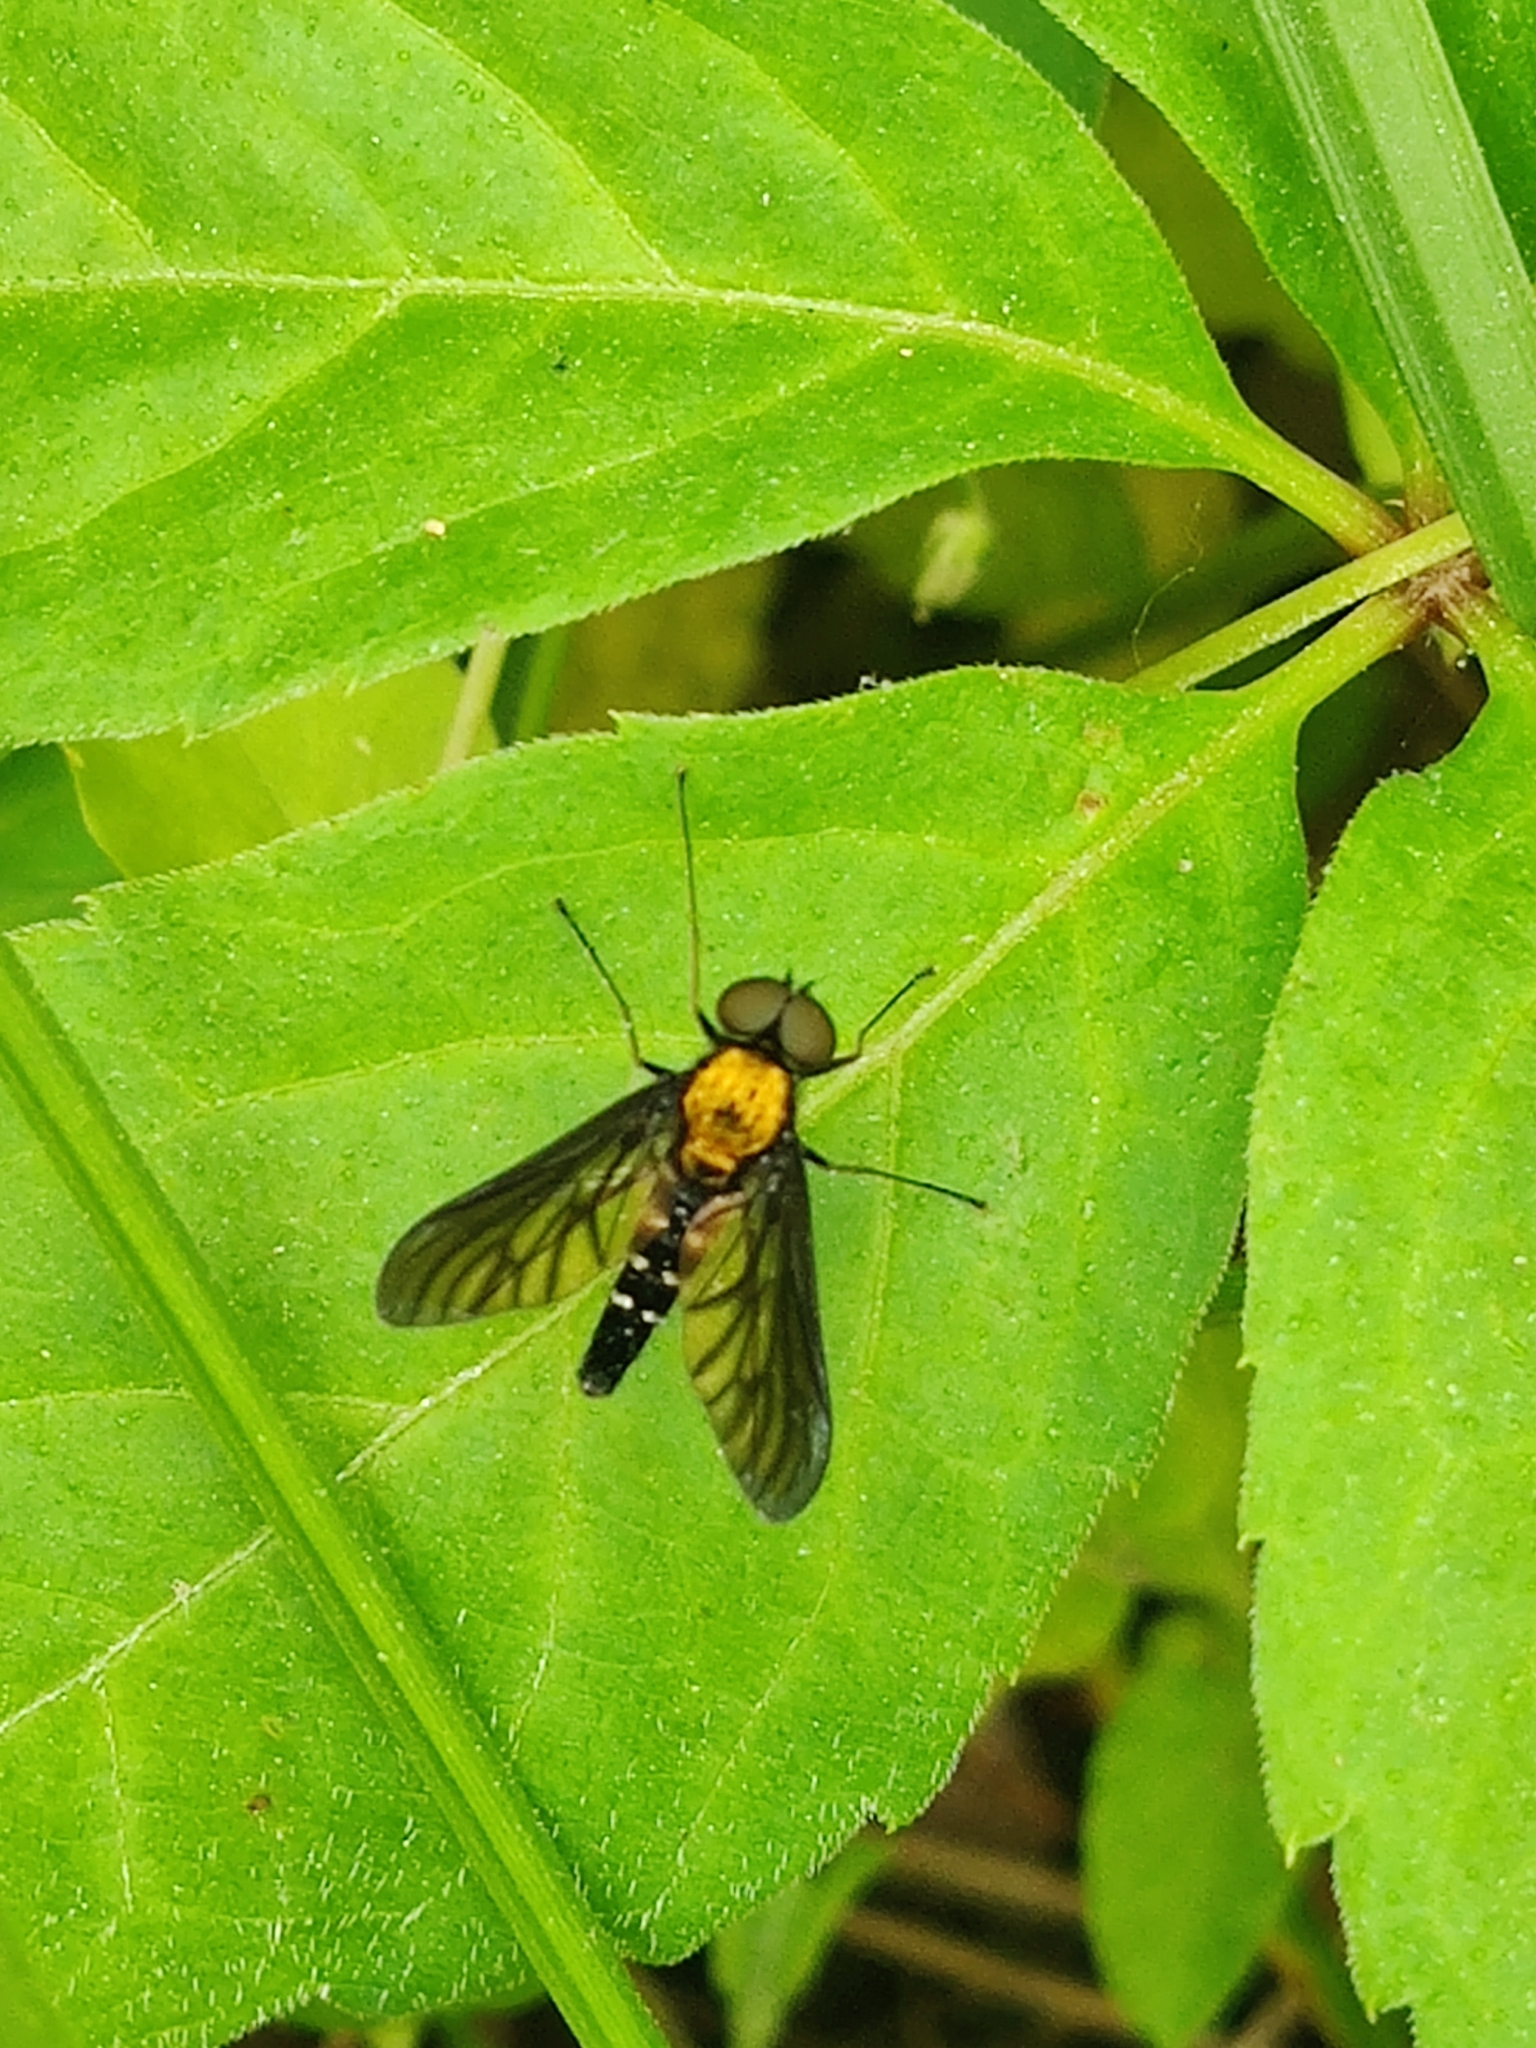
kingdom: Animalia
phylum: Arthropoda
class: Insecta
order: Diptera
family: Rhagionidae
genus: Chrysopilus
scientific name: Chrysopilus thoracicus
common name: Golden-backed snipe fly
